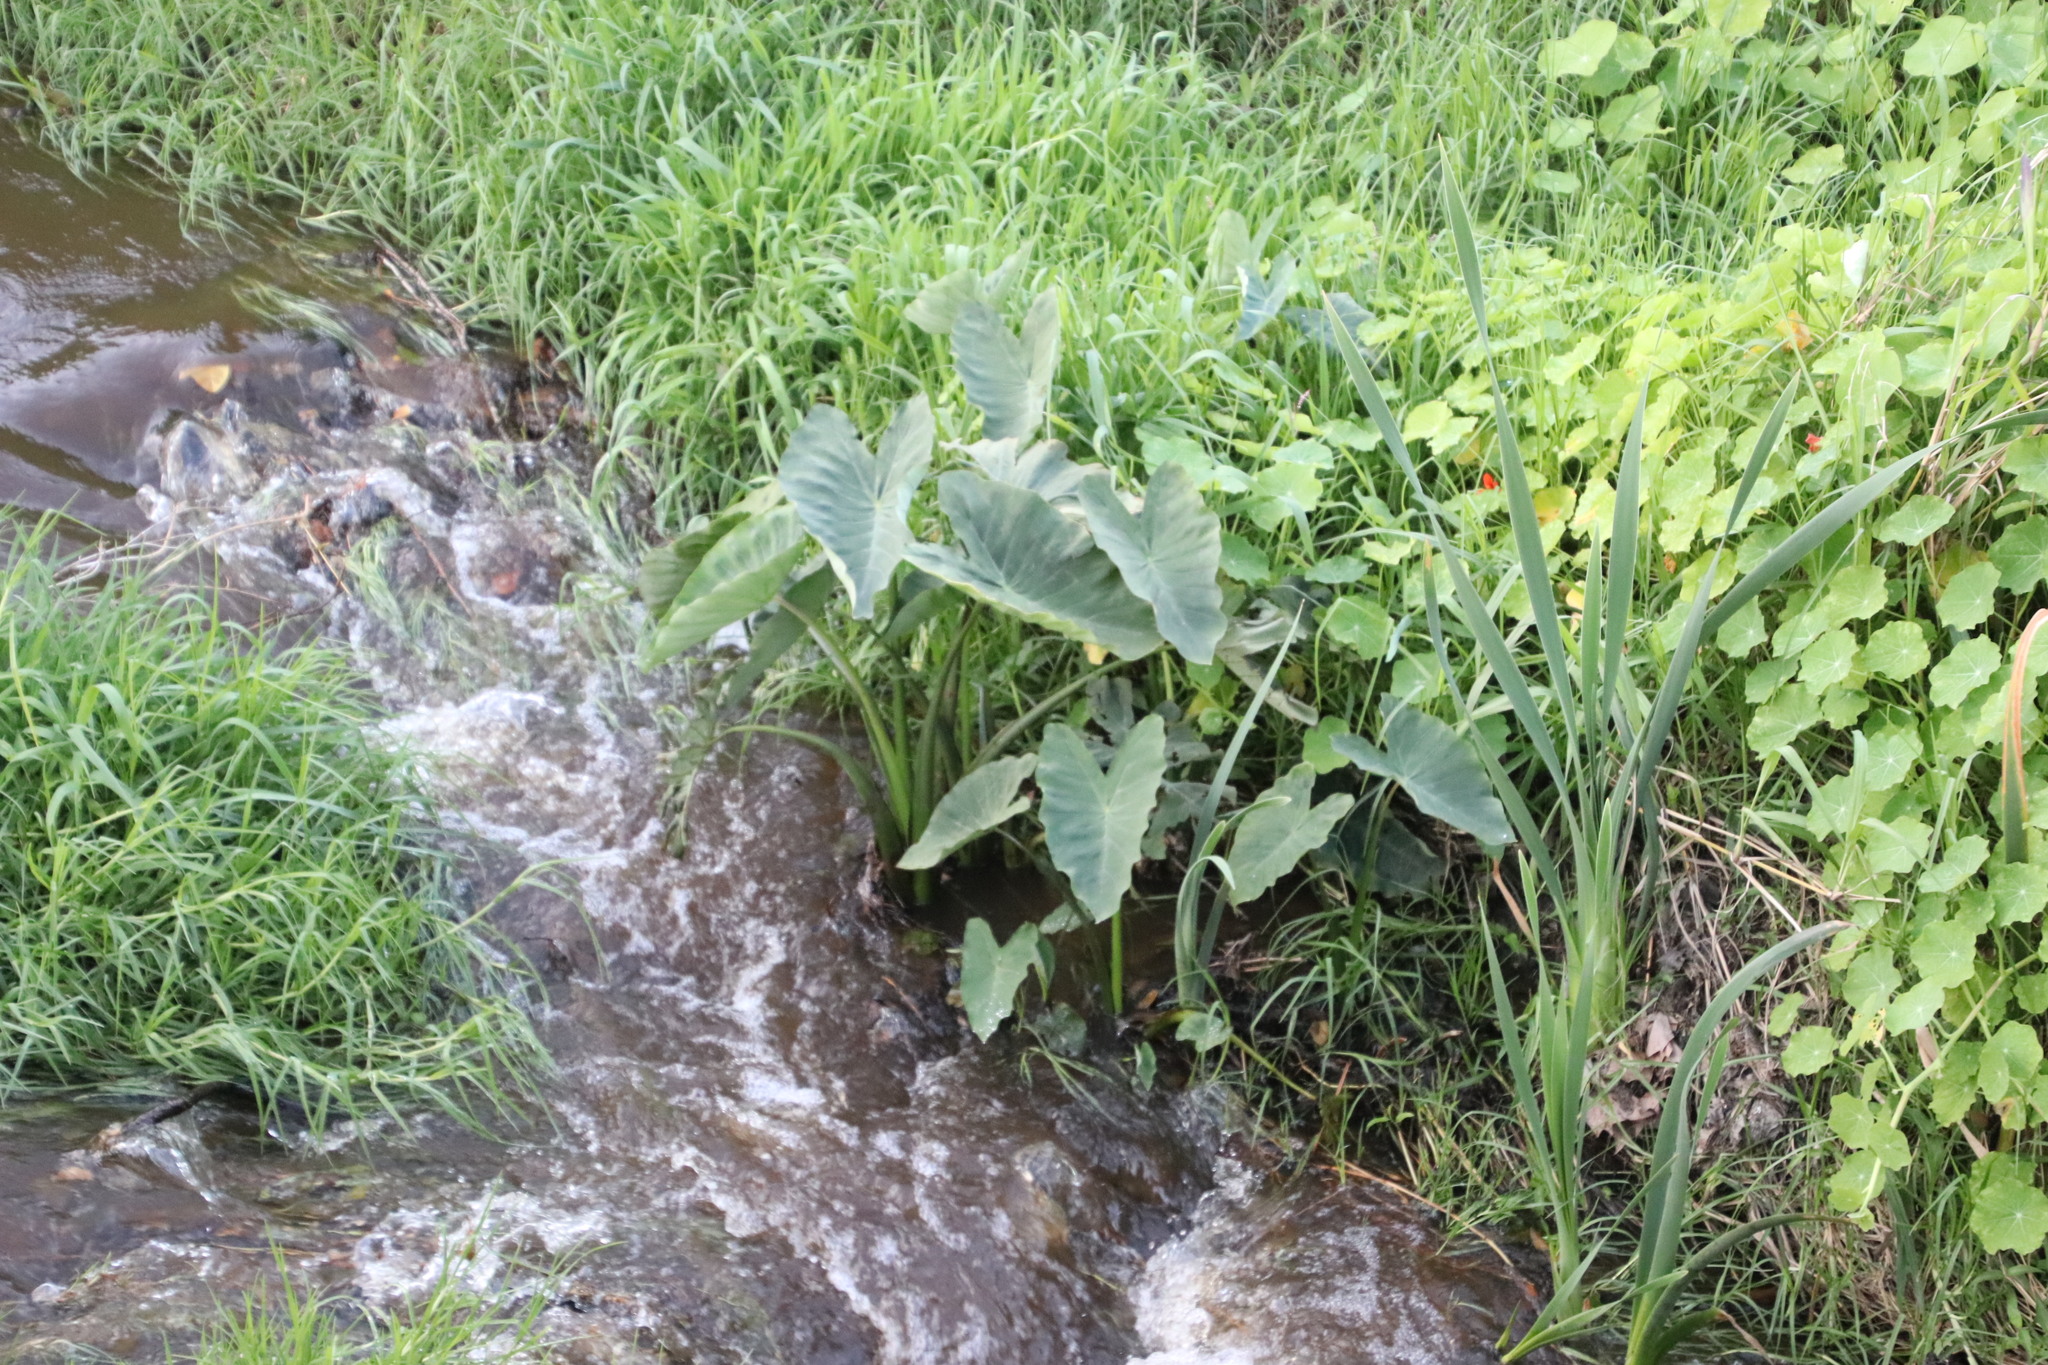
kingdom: Plantae
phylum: Tracheophyta
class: Liliopsida
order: Alismatales
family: Araceae
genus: Colocasia
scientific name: Colocasia esculenta
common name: Taro
